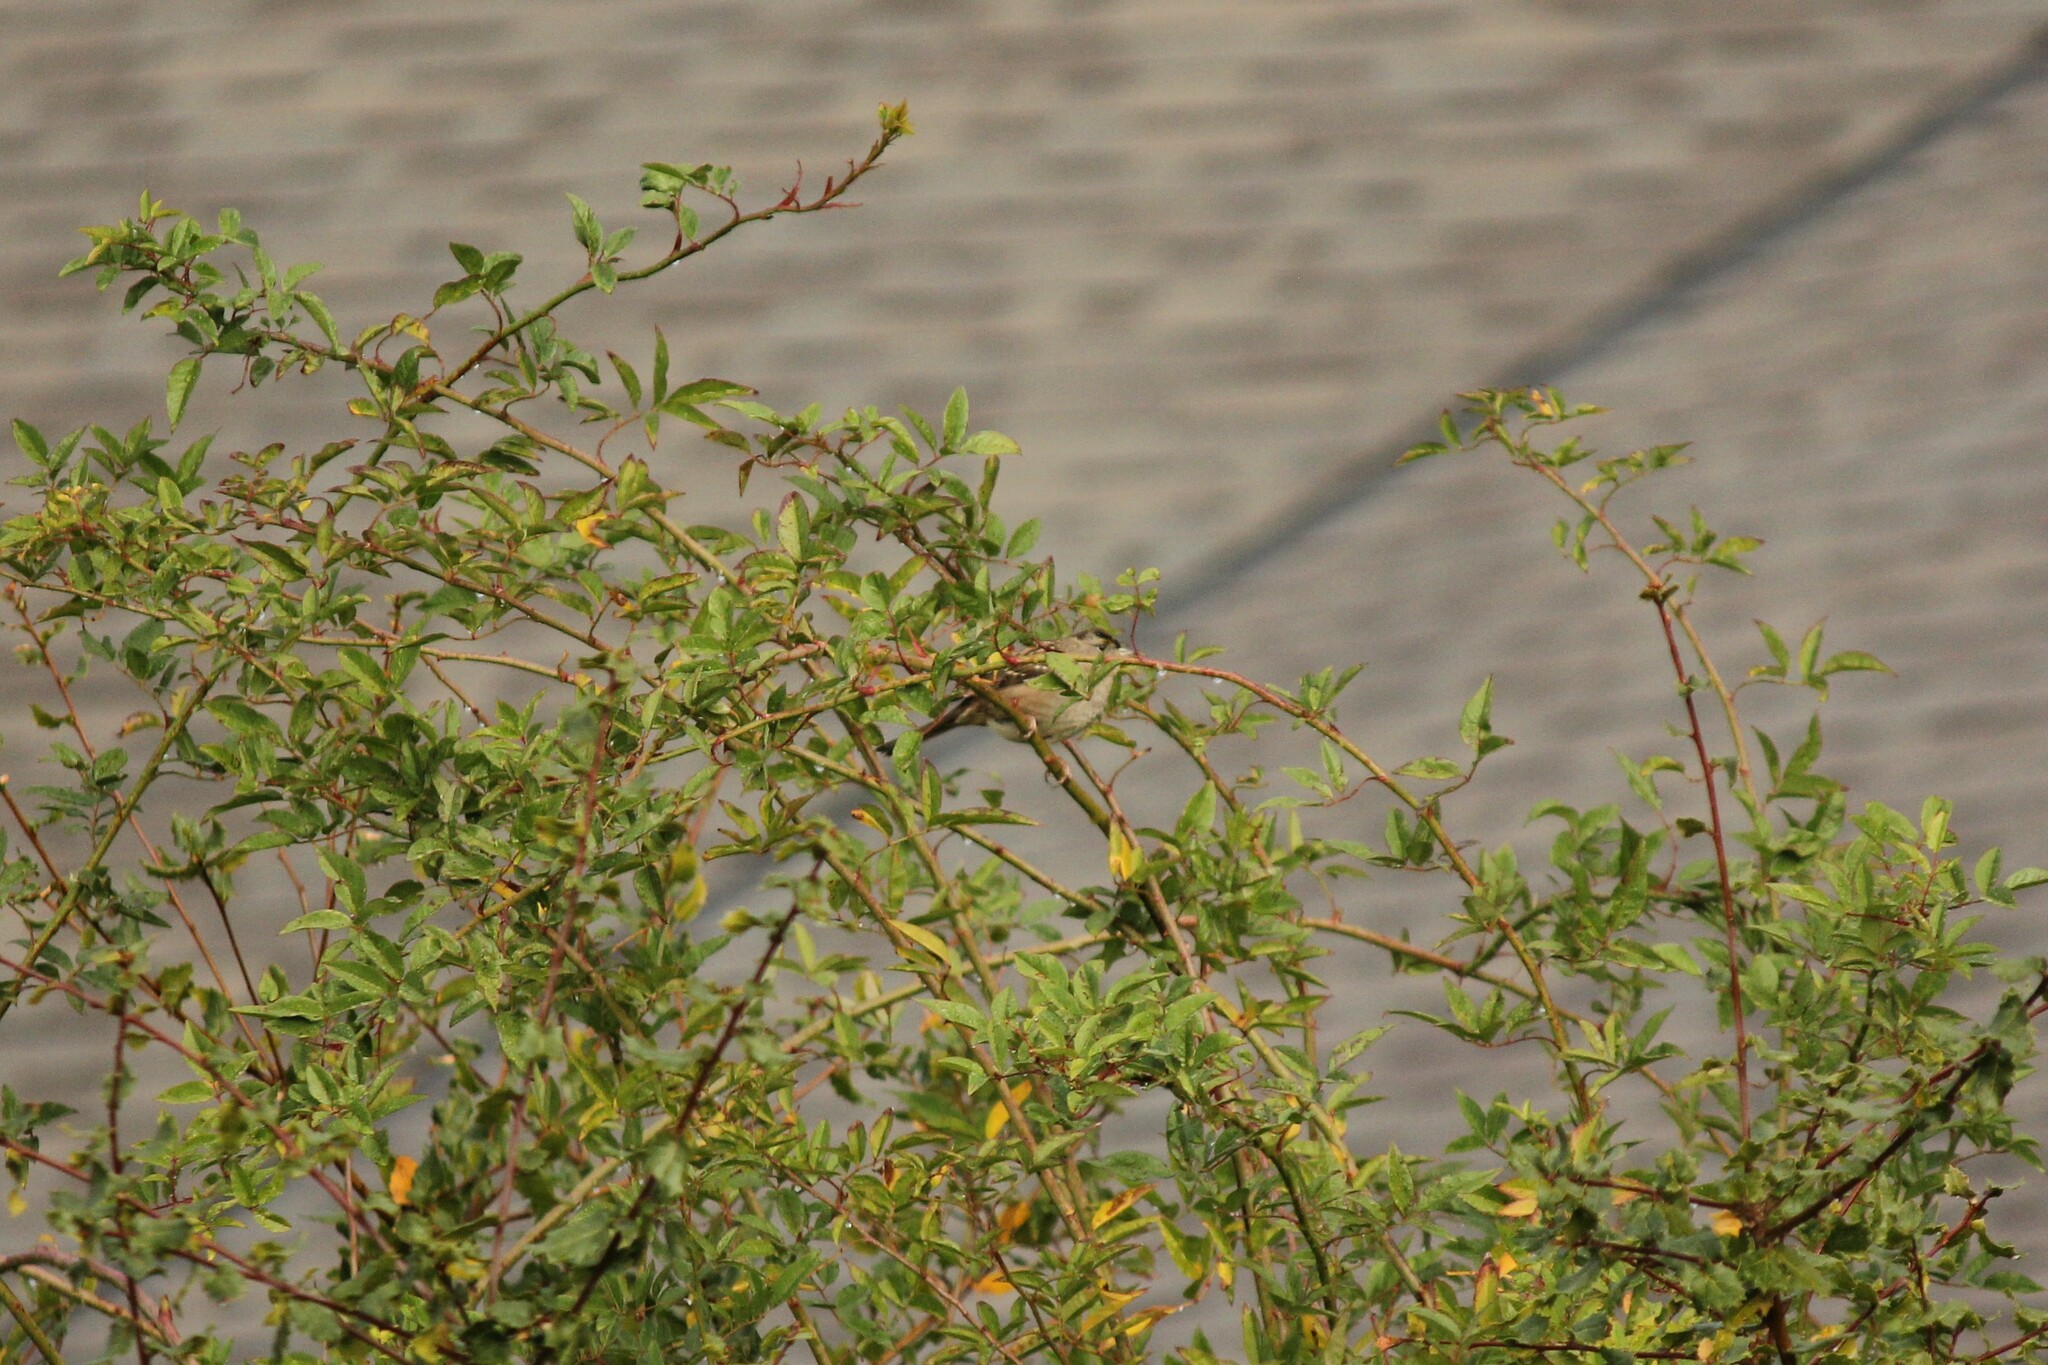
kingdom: Animalia
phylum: Chordata
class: Aves
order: Passeriformes
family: Passerellidae
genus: Zonotrichia
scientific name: Zonotrichia atricapilla
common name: Golden-crowned sparrow
